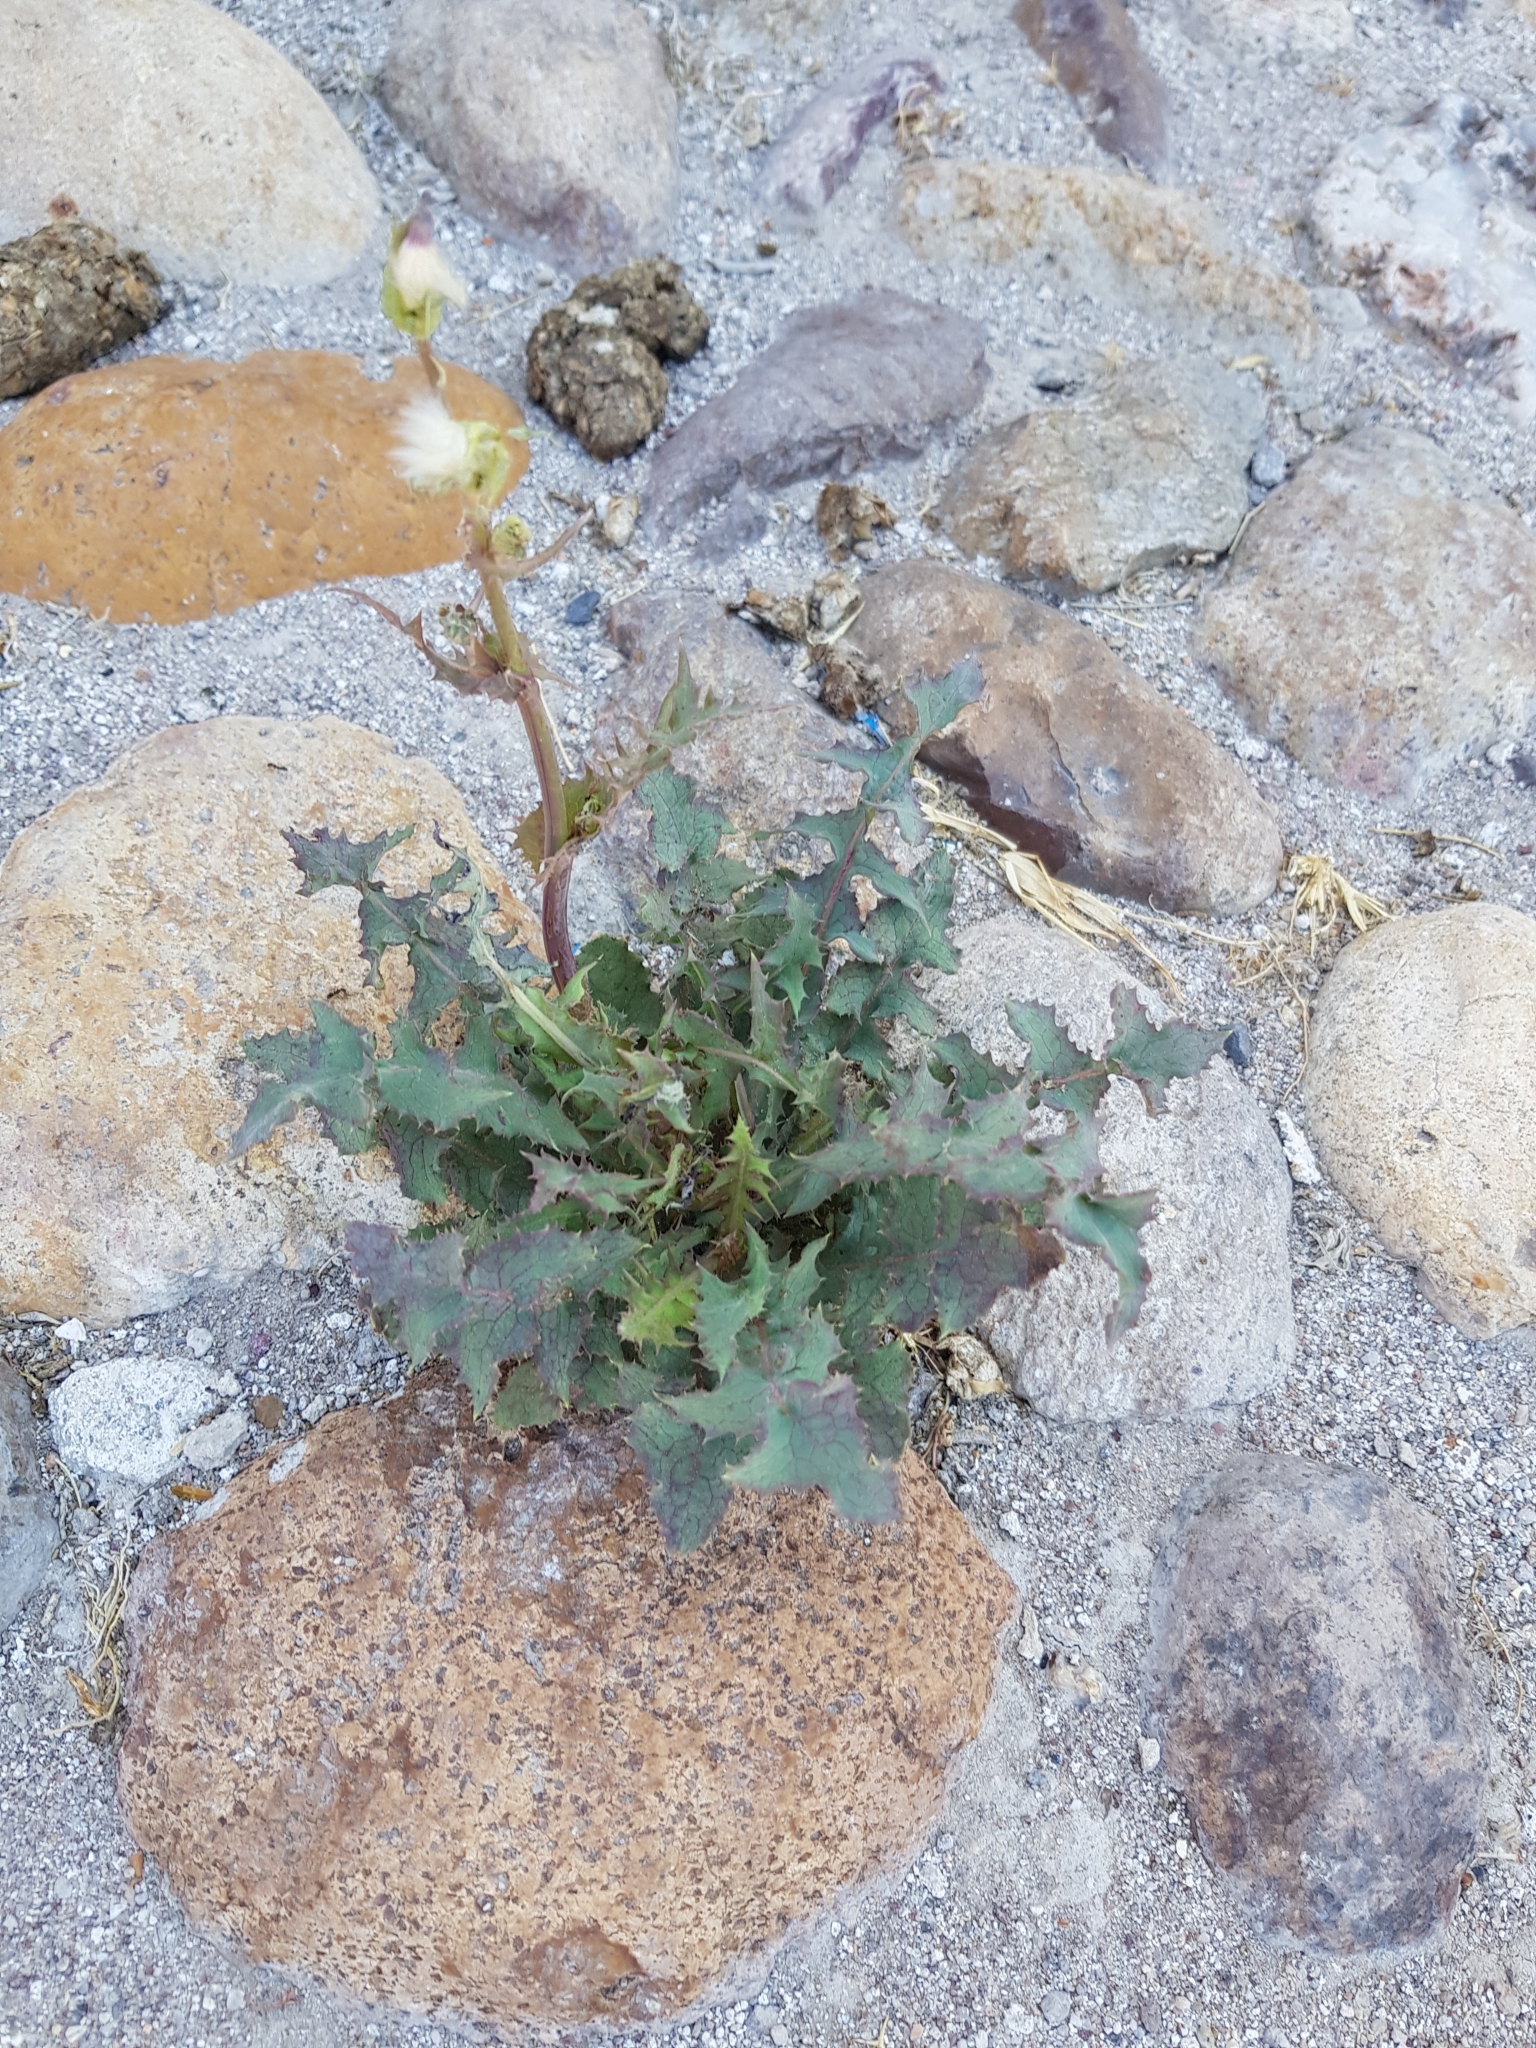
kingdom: Plantae
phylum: Tracheophyta
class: Magnoliopsida
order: Asterales
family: Asteraceae
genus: Sonchus
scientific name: Sonchus oleraceus
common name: Common sowthistle
